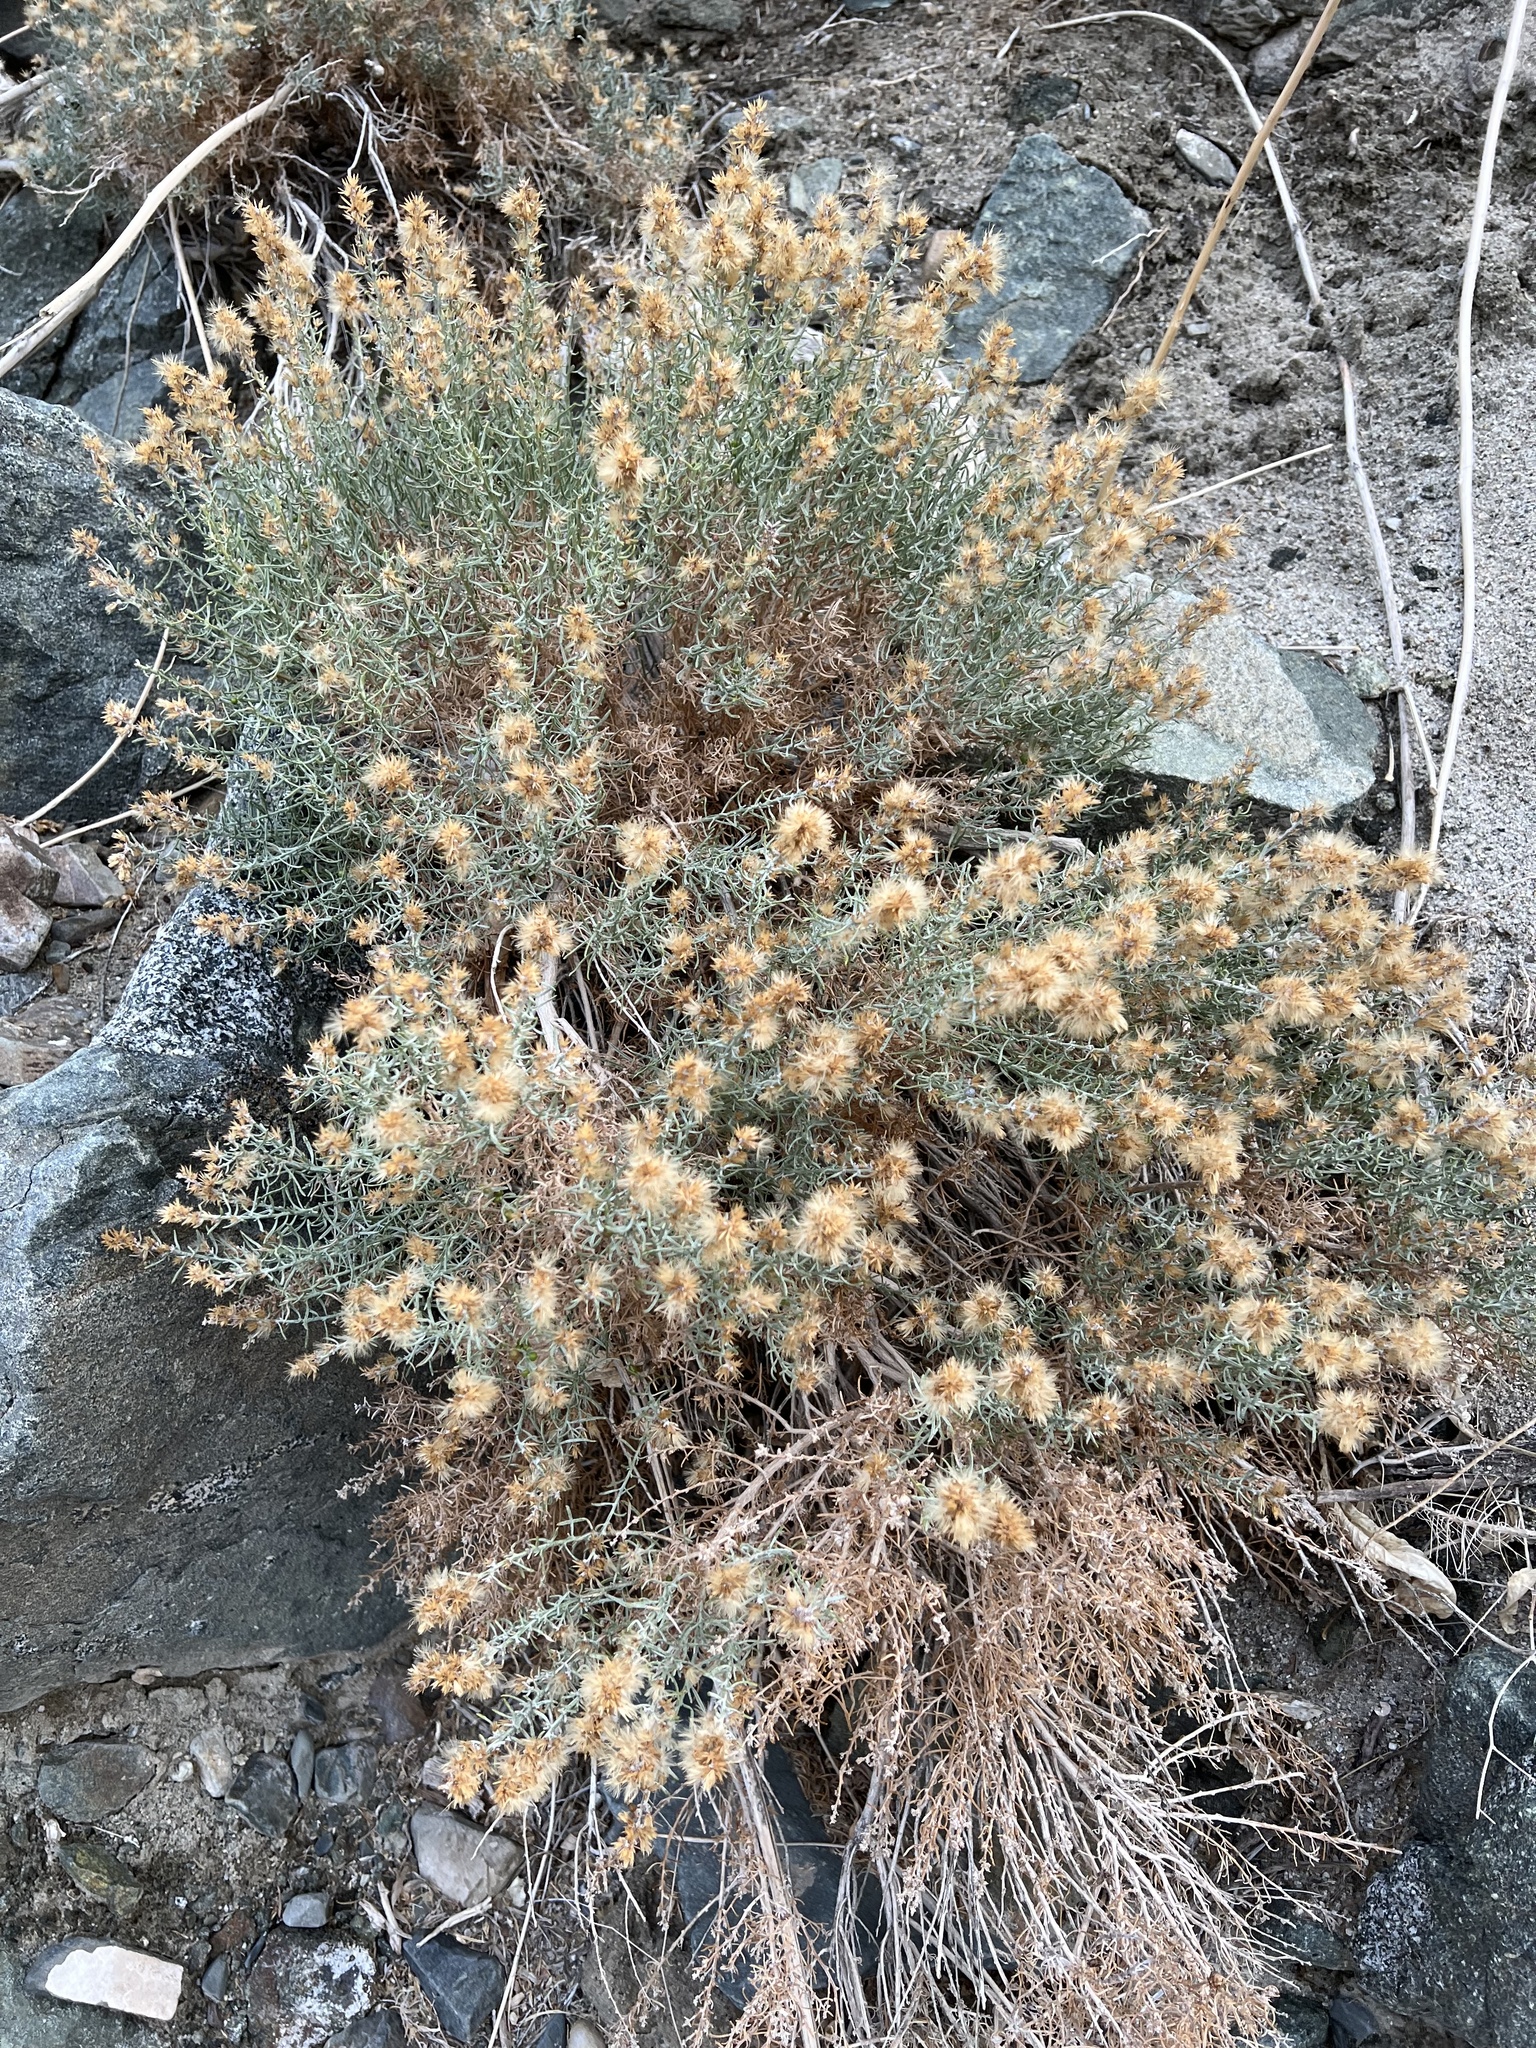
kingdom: Plantae
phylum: Tracheophyta
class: Magnoliopsida
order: Asterales
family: Asteraceae
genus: Ericameria
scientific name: Ericameria teretifolia
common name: Round-leaf rabbitbrush
